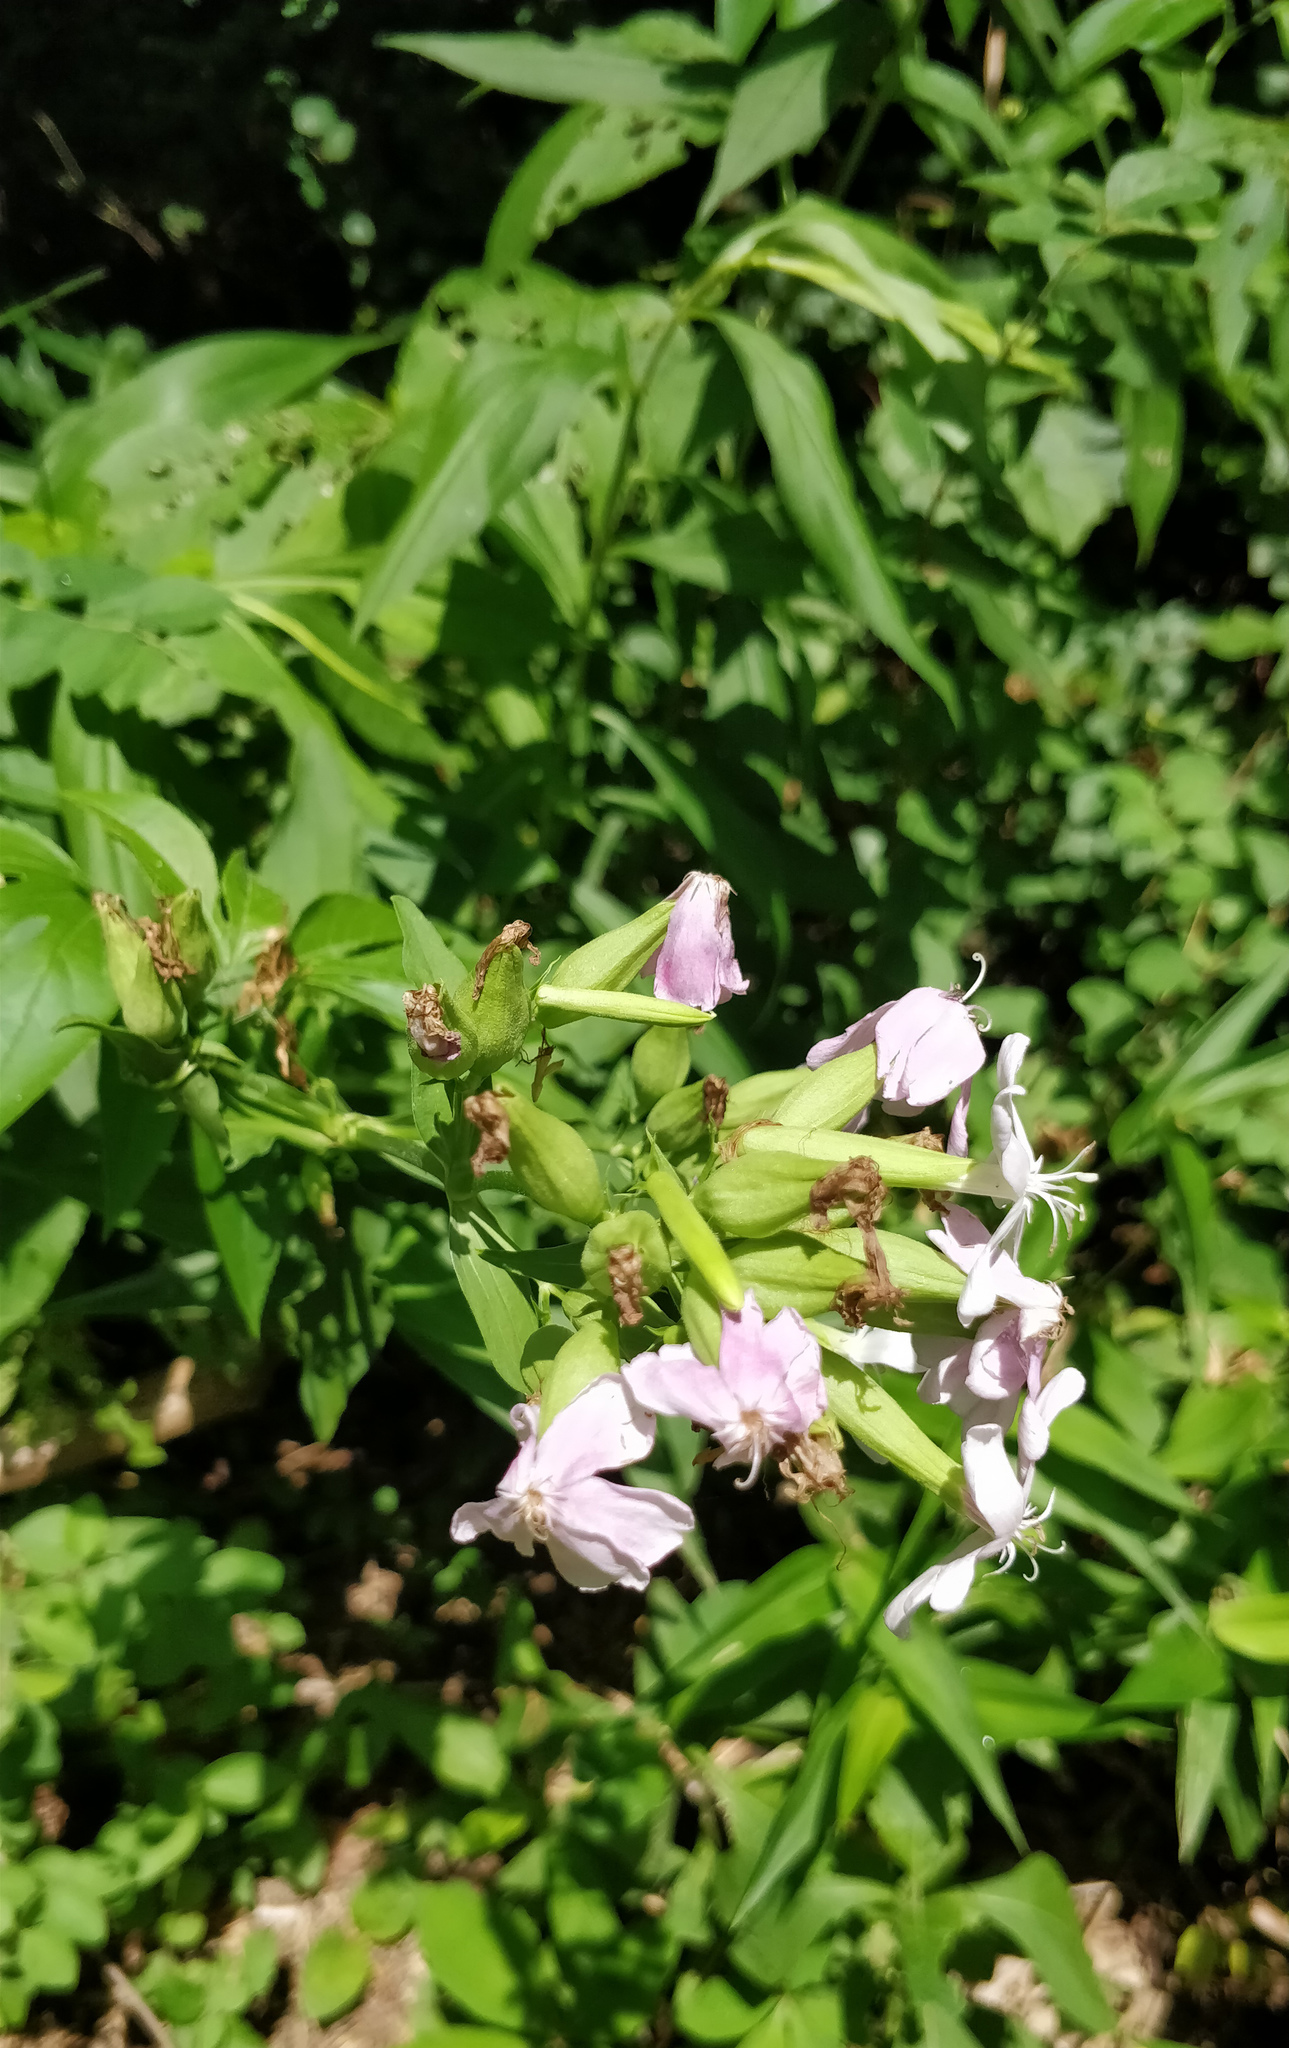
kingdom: Plantae
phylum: Tracheophyta
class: Magnoliopsida
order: Caryophyllales
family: Caryophyllaceae
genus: Saponaria
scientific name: Saponaria officinalis
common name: Soapwort
